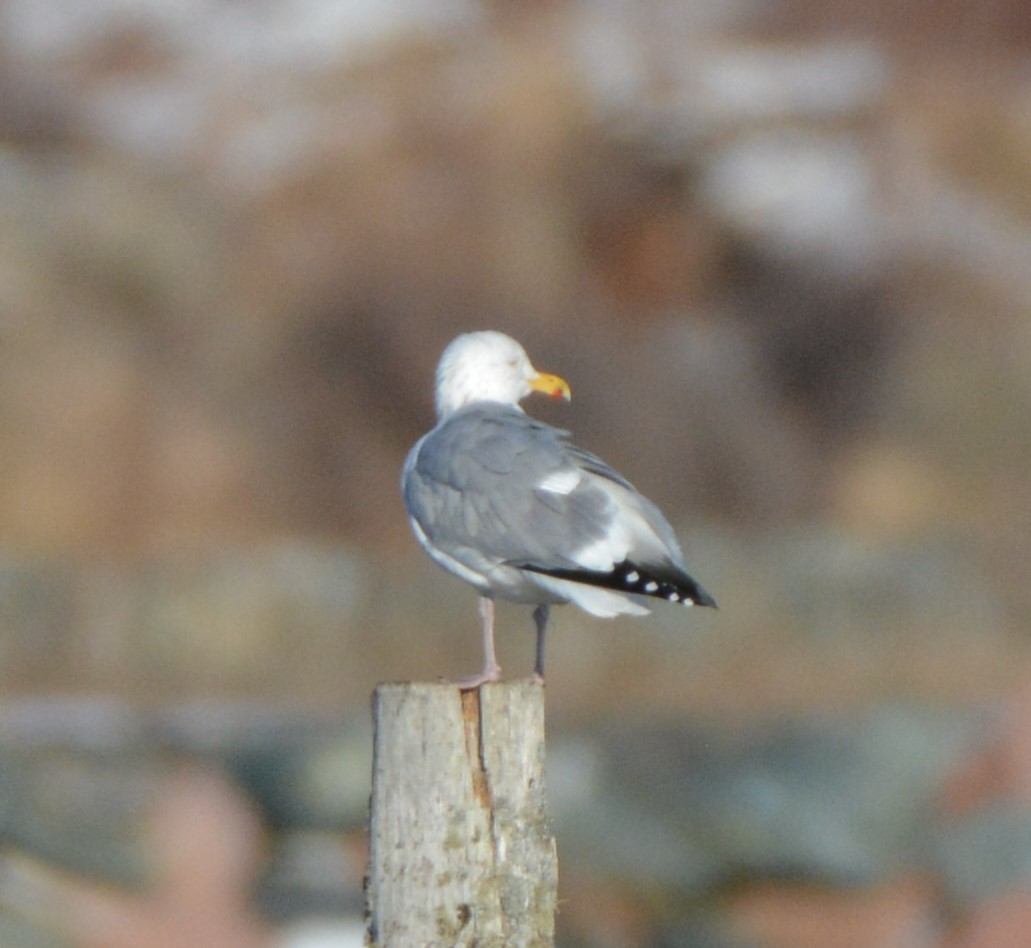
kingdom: Animalia
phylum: Chordata
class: Aves
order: Charadriiformes
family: Laridae
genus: Larus
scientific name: Larus argentatus
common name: Herring gull
